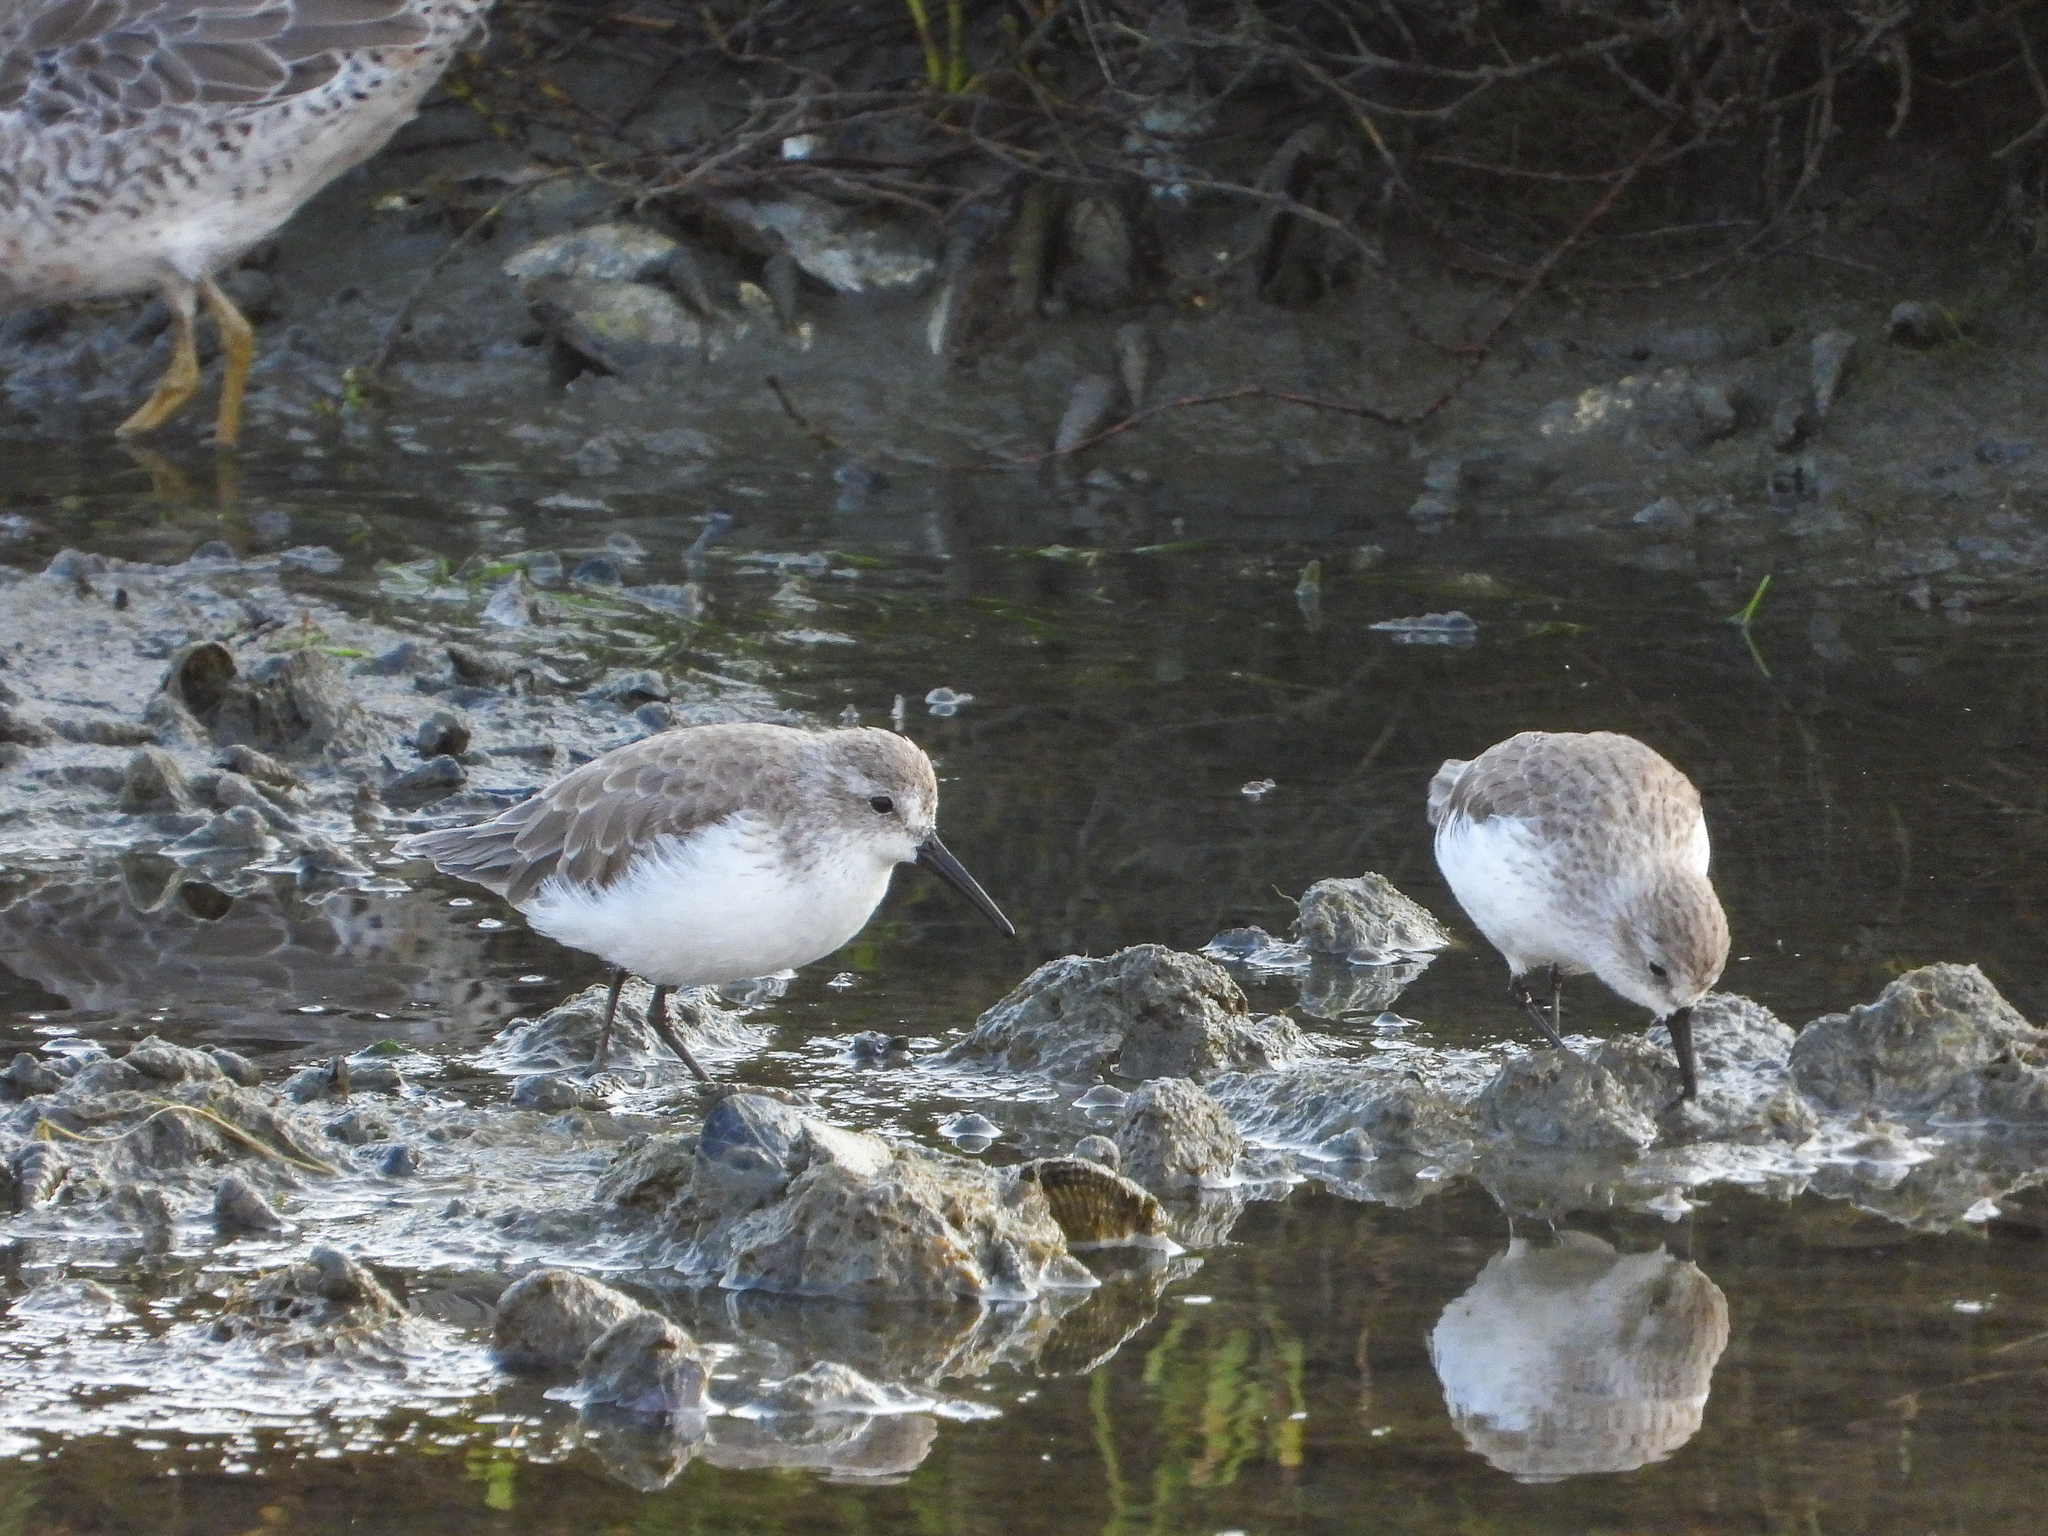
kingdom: Animalia
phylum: Chordata
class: Aves
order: Charadriiformes
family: Scolopacidae
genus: Calidris
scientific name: Calidris mauri
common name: Western sandpiper
